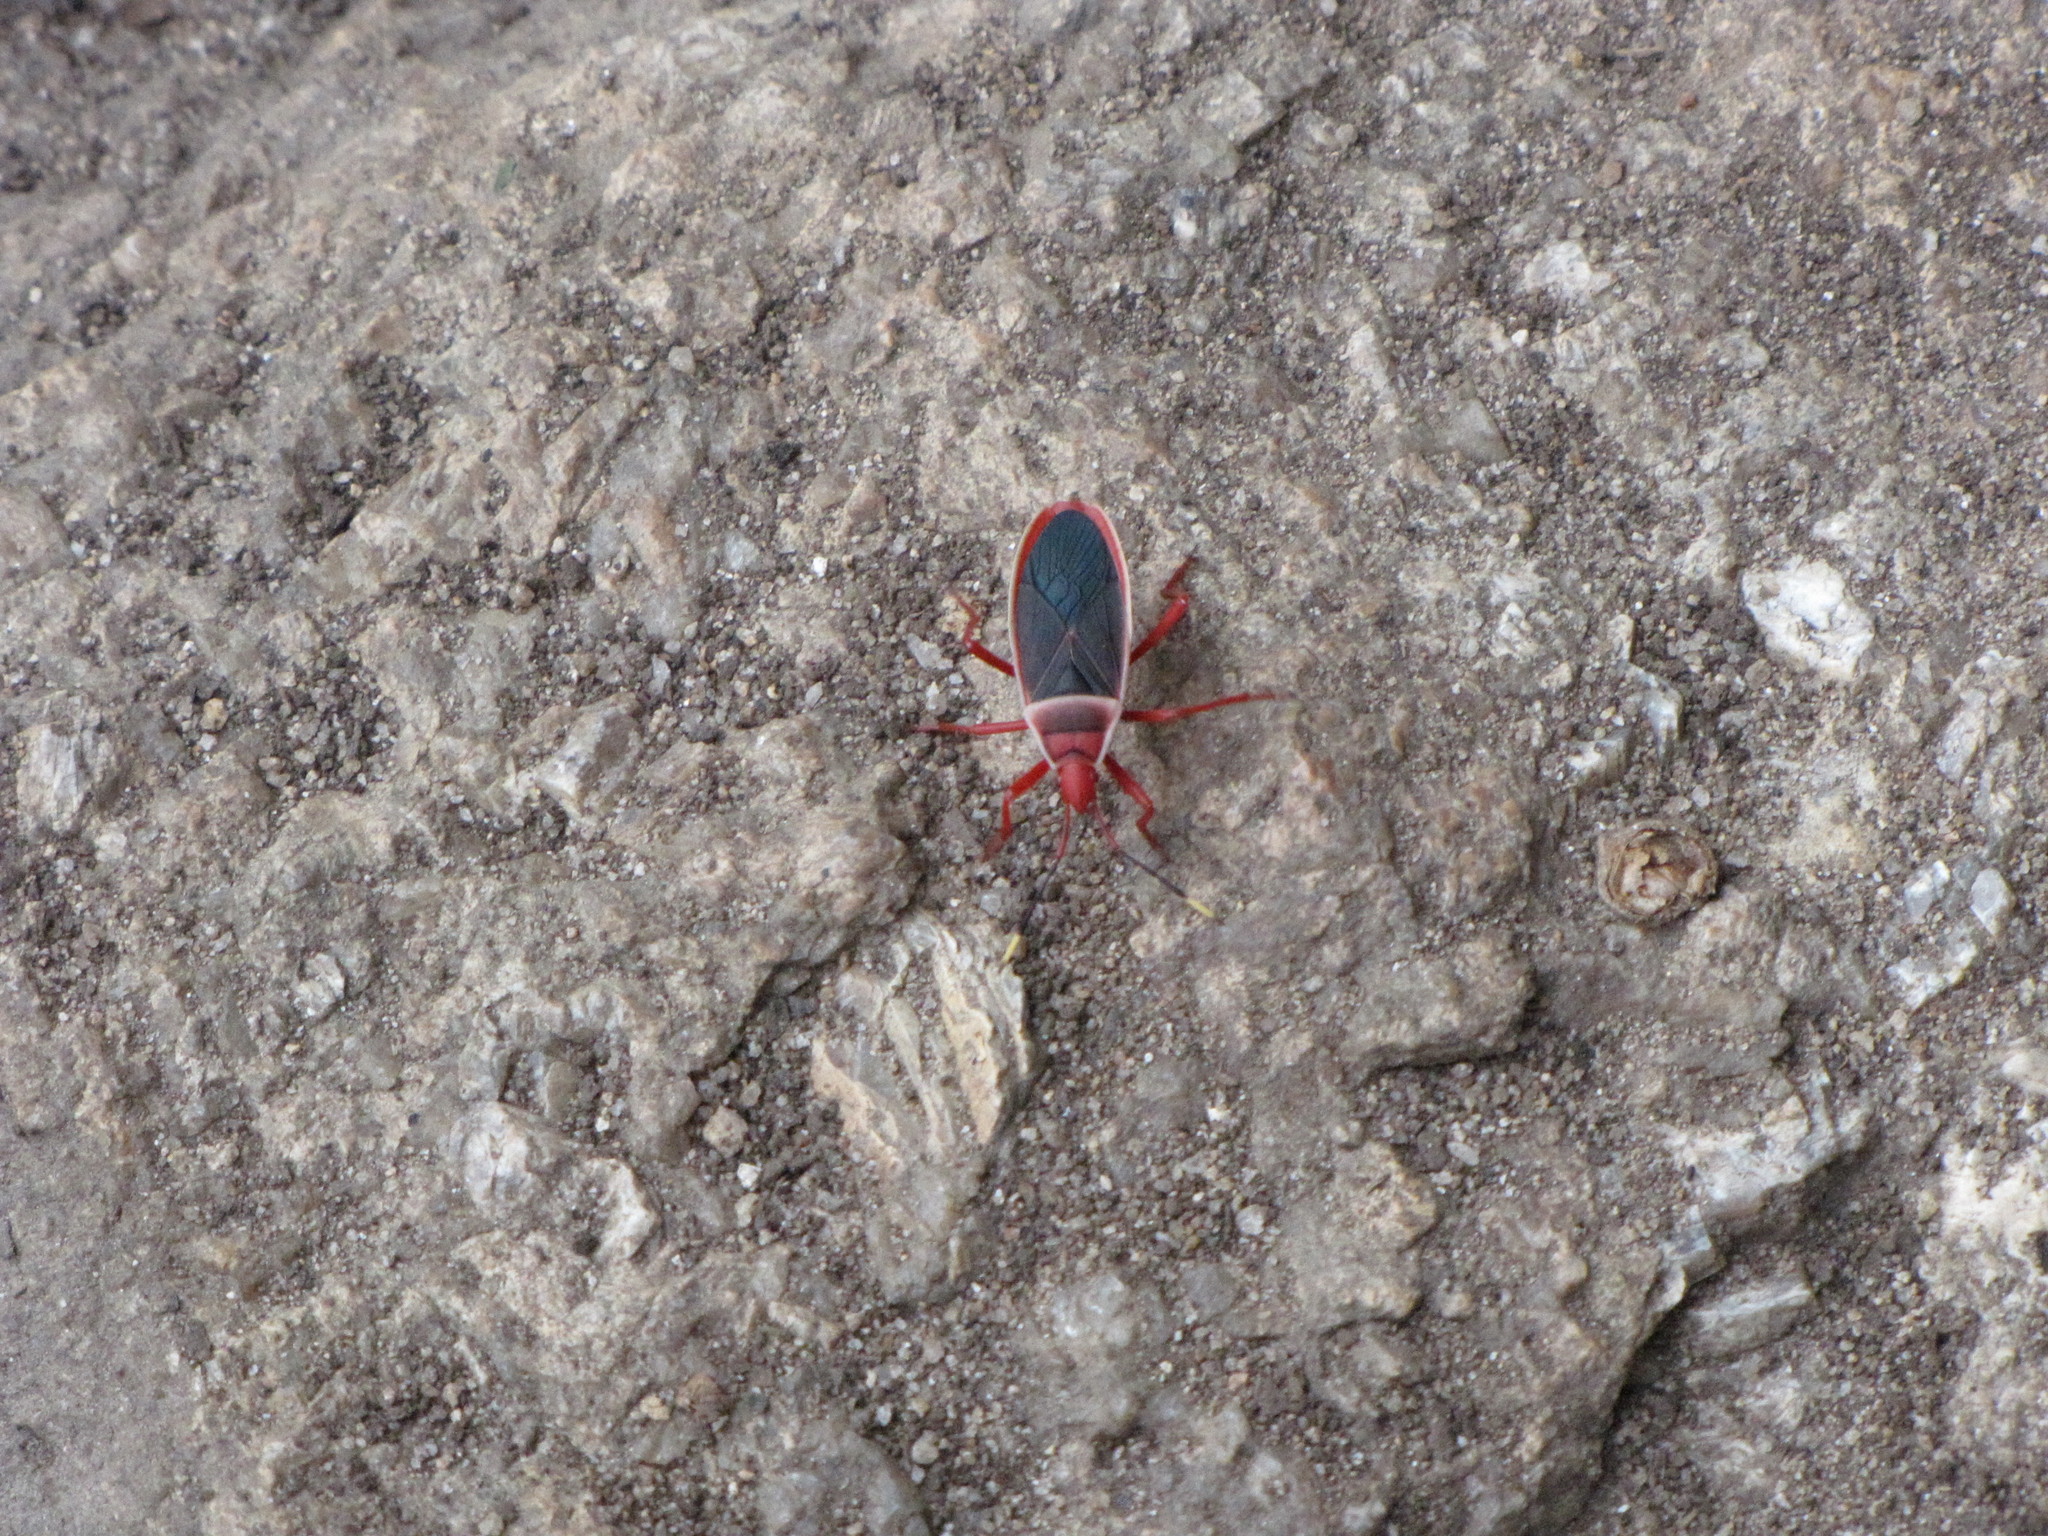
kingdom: Animalia
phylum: Arthropoda
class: Insecta
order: Hemiptera
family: Pyrrhocoridae
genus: Probergrothius
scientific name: Probergrothius varicornis
